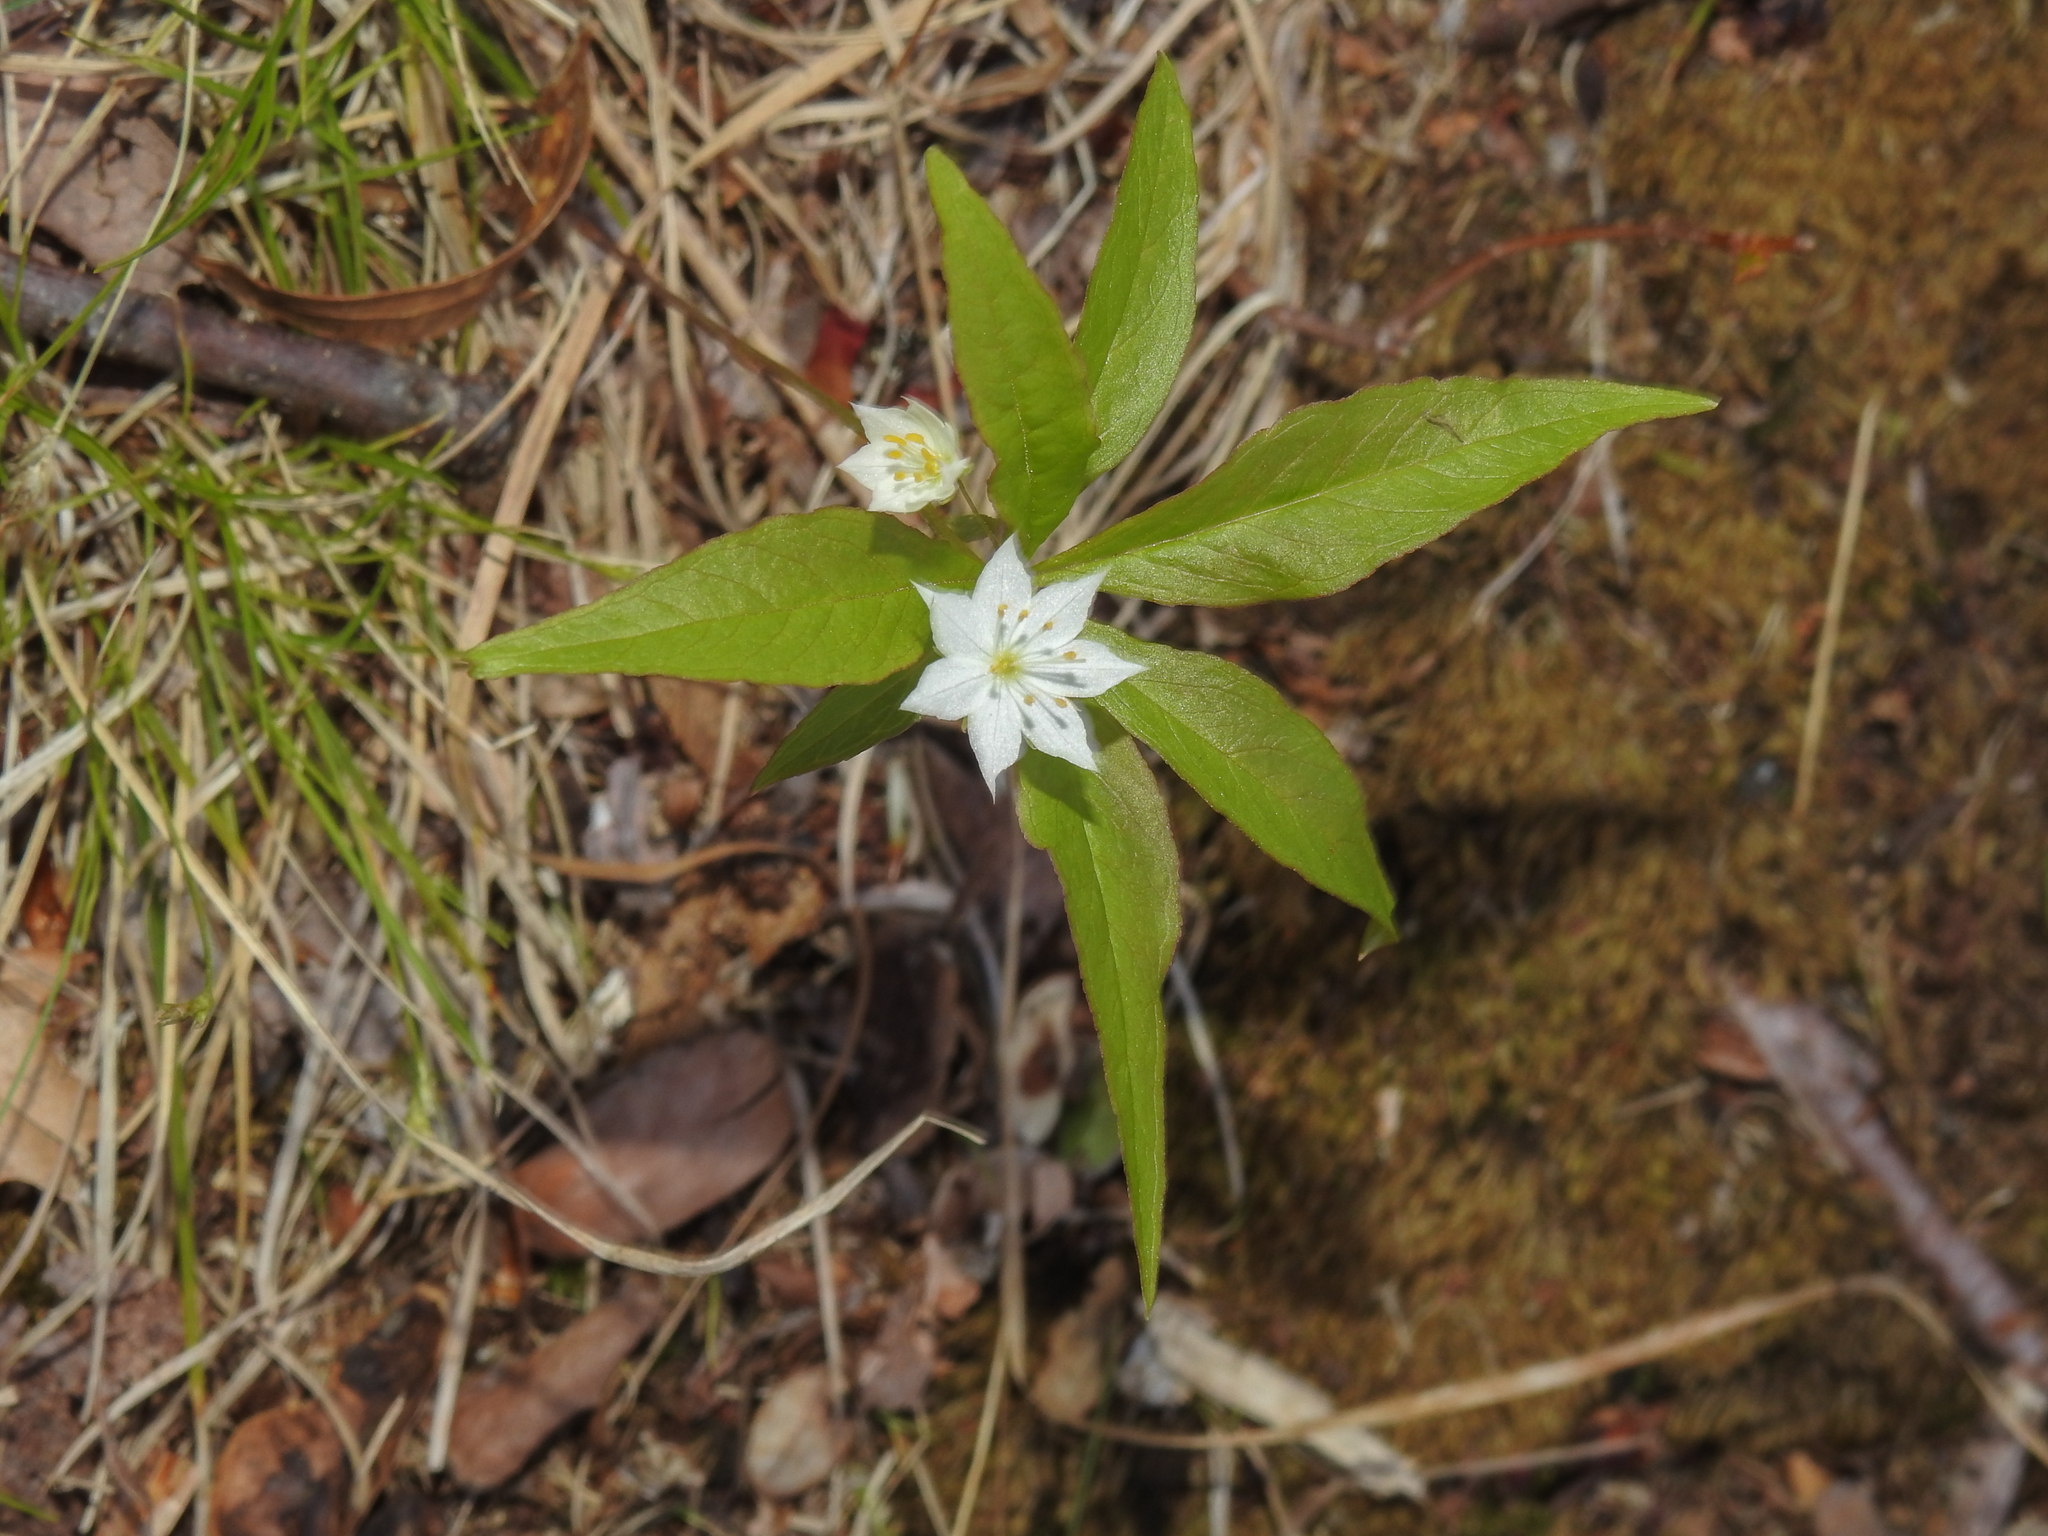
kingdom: Plantae
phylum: Tracheophyta
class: Magnoliopsida
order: Ericales
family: Primulaceae
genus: Lysimachia
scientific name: Lysimachia borealis
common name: American starflower
